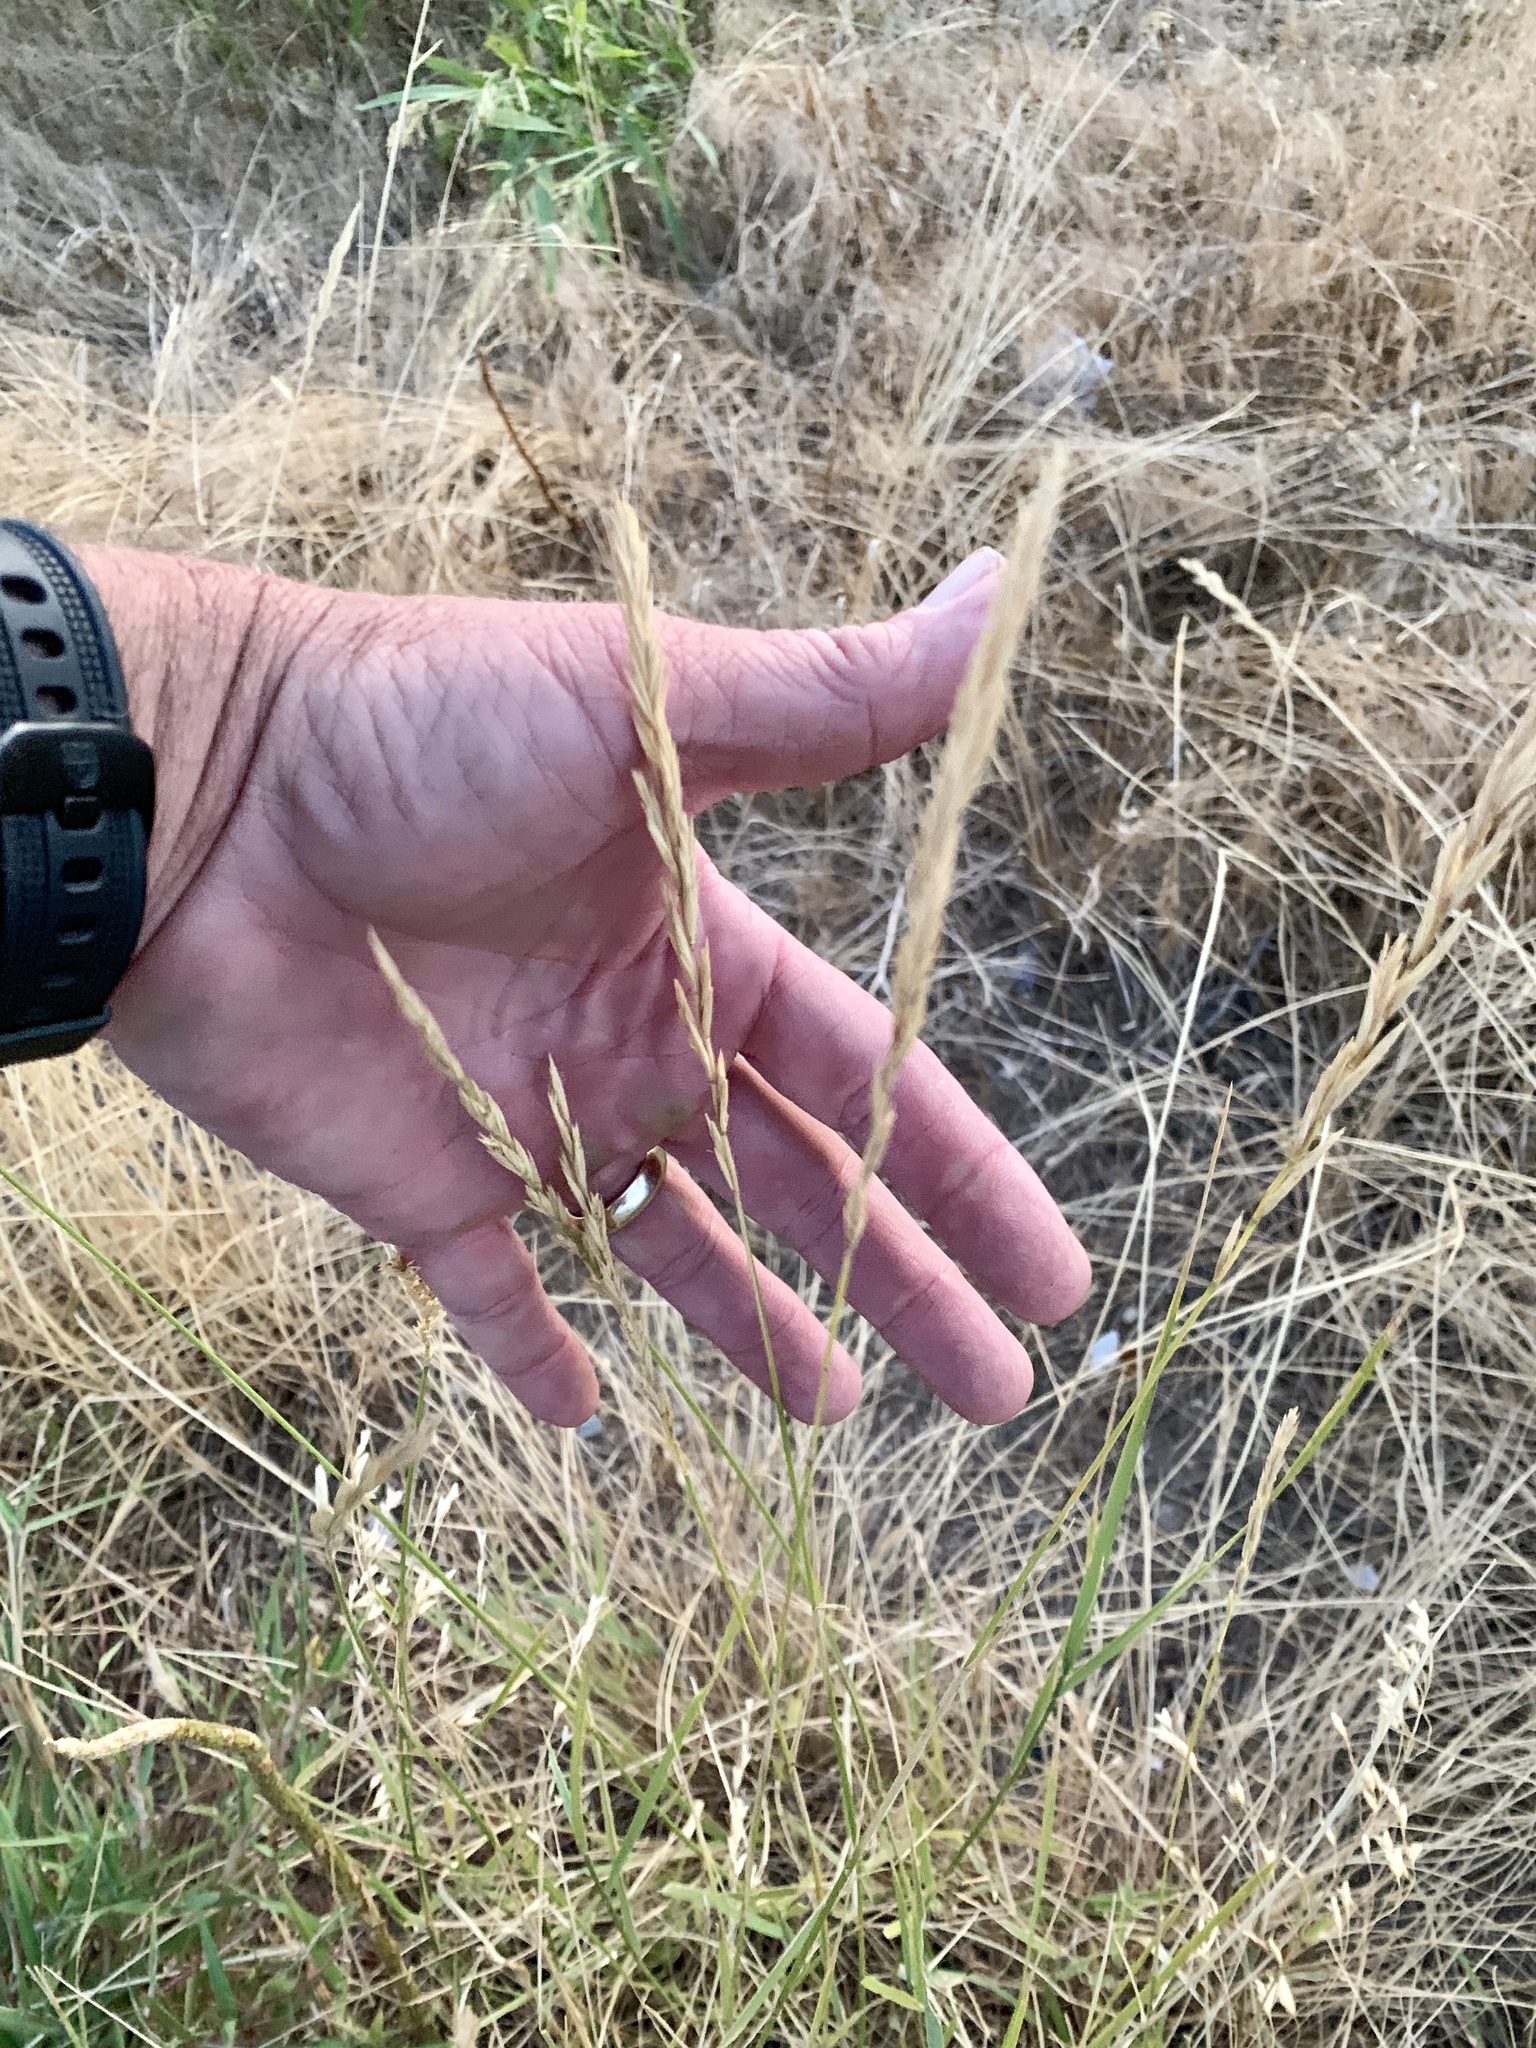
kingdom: Plantae
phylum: Tracheophyta
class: Liliopsida
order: Poales
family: Poaceae
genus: Elymus
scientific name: Elymus smithii
